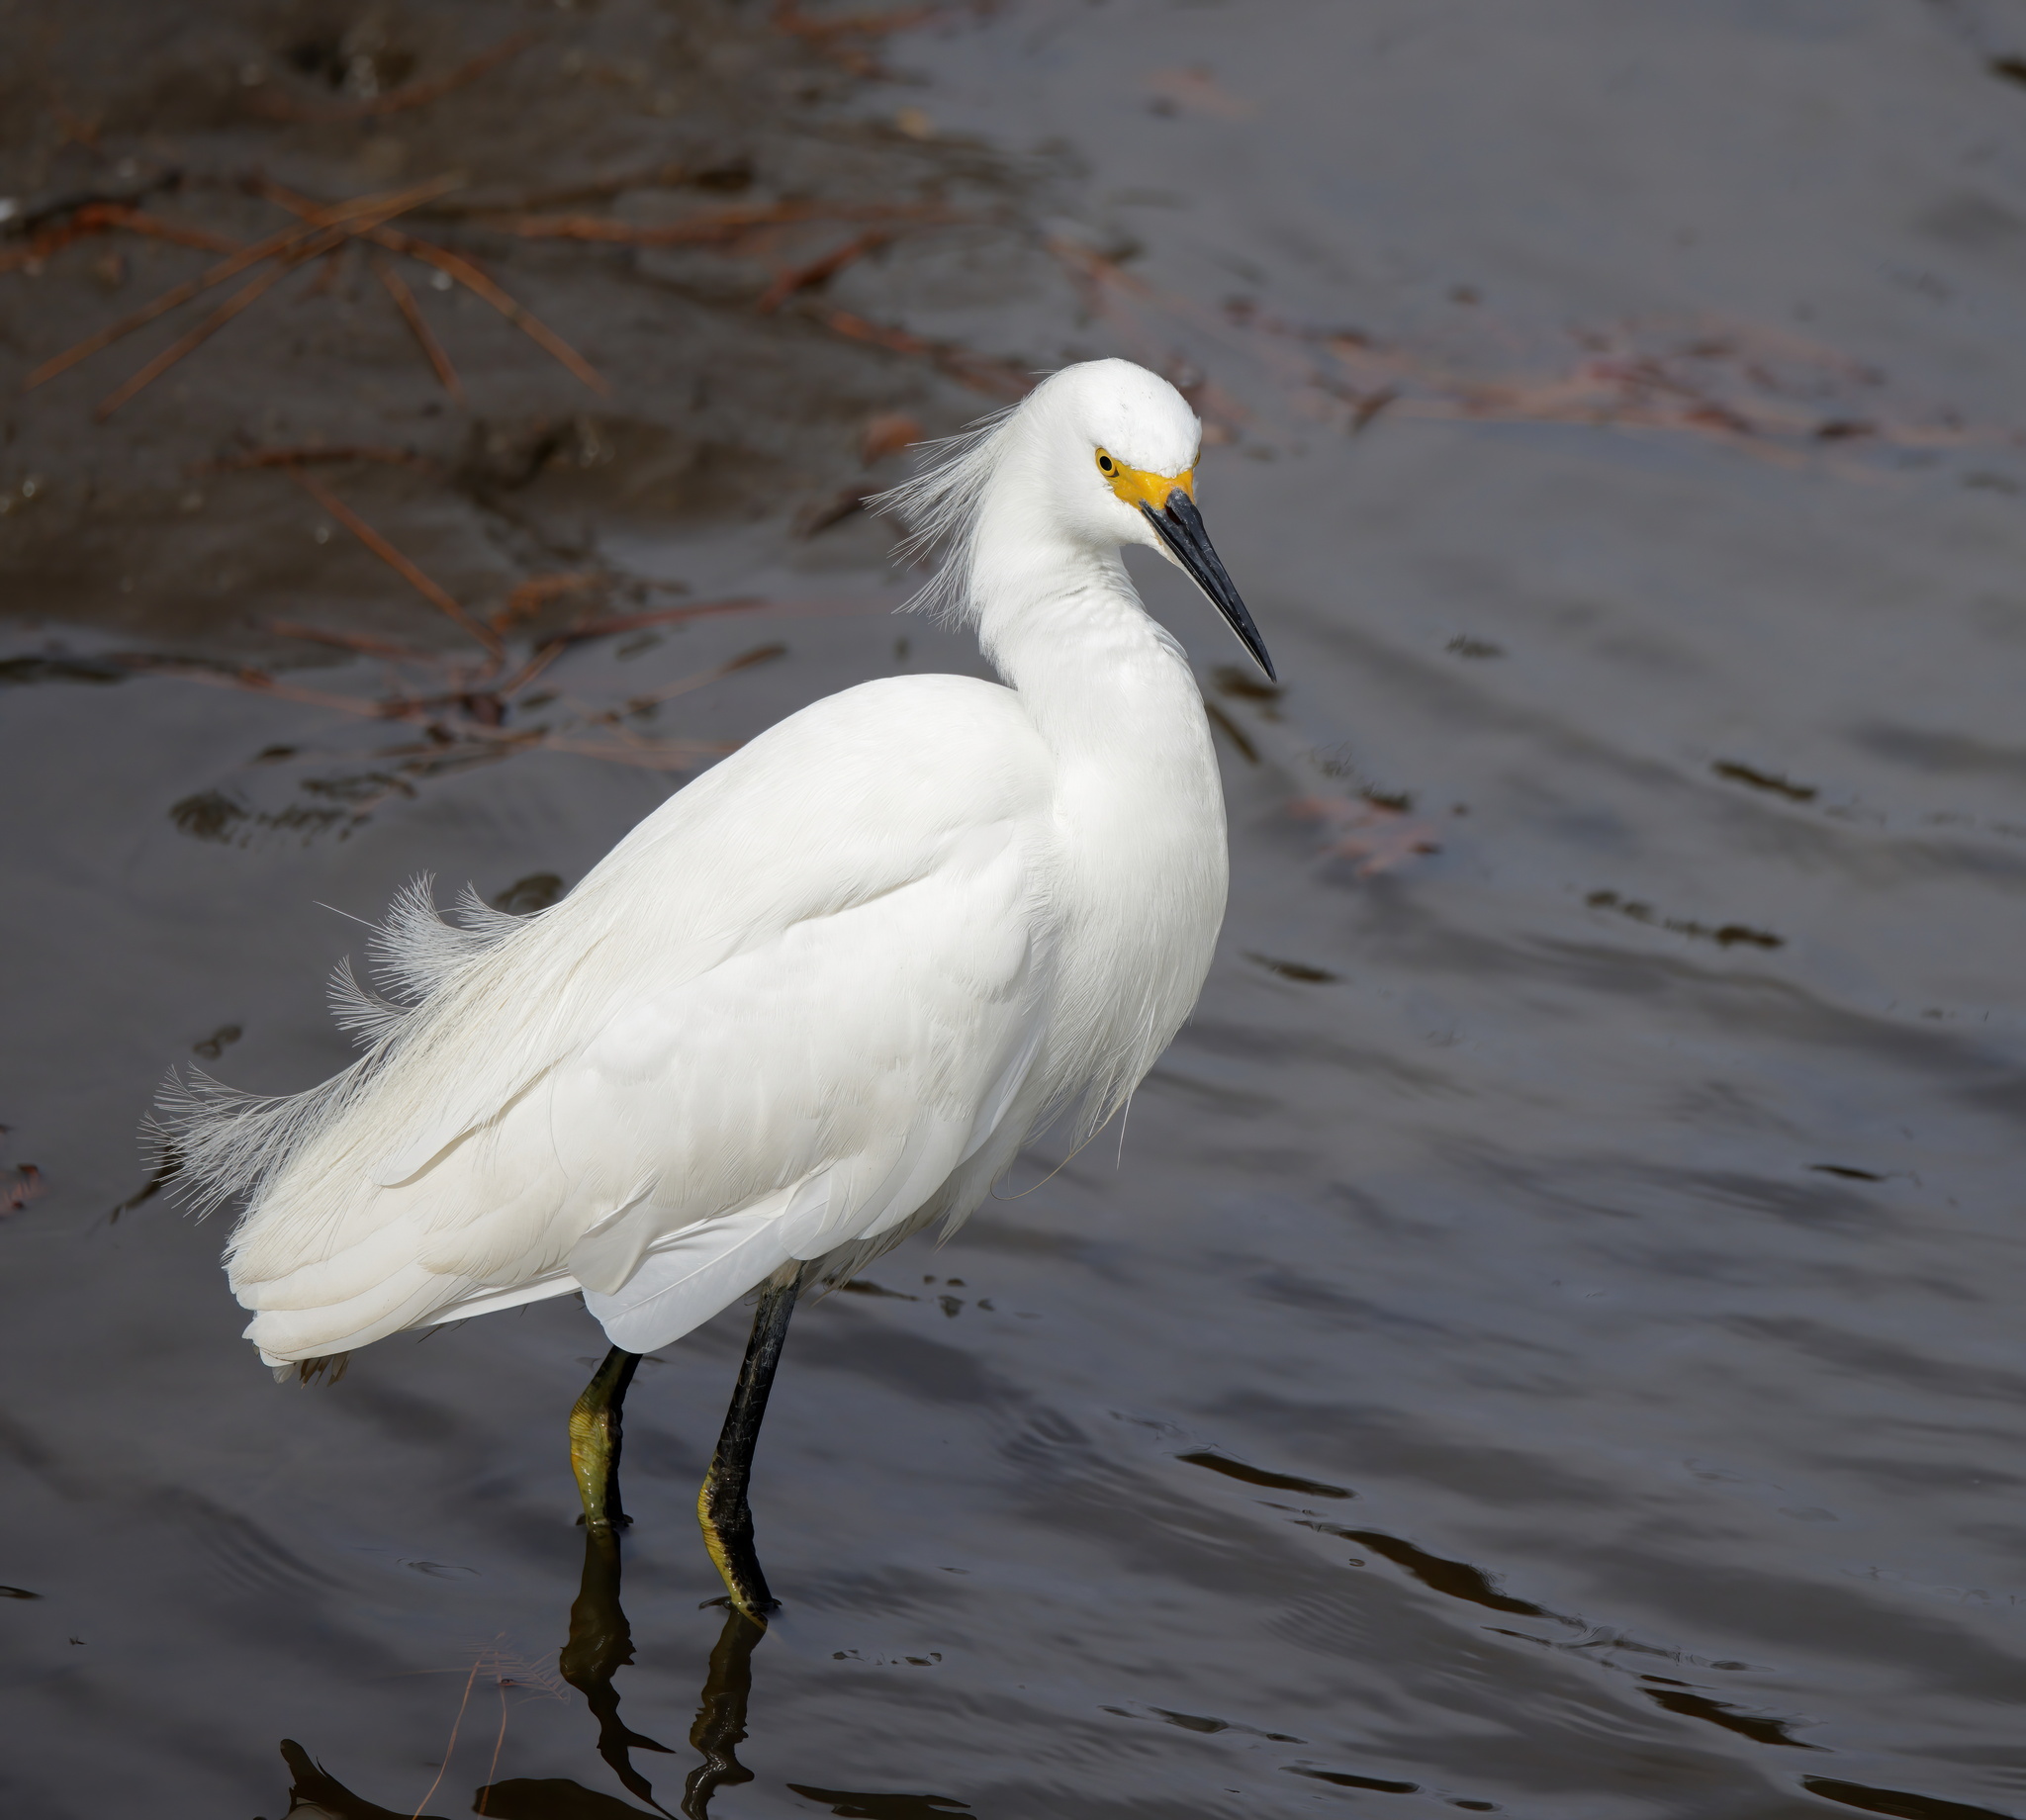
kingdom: Animalia
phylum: Chordata
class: Aves
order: Pelecaniformes
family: Ardeidae
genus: Egretta
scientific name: Egretta thula
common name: Snowy egret
